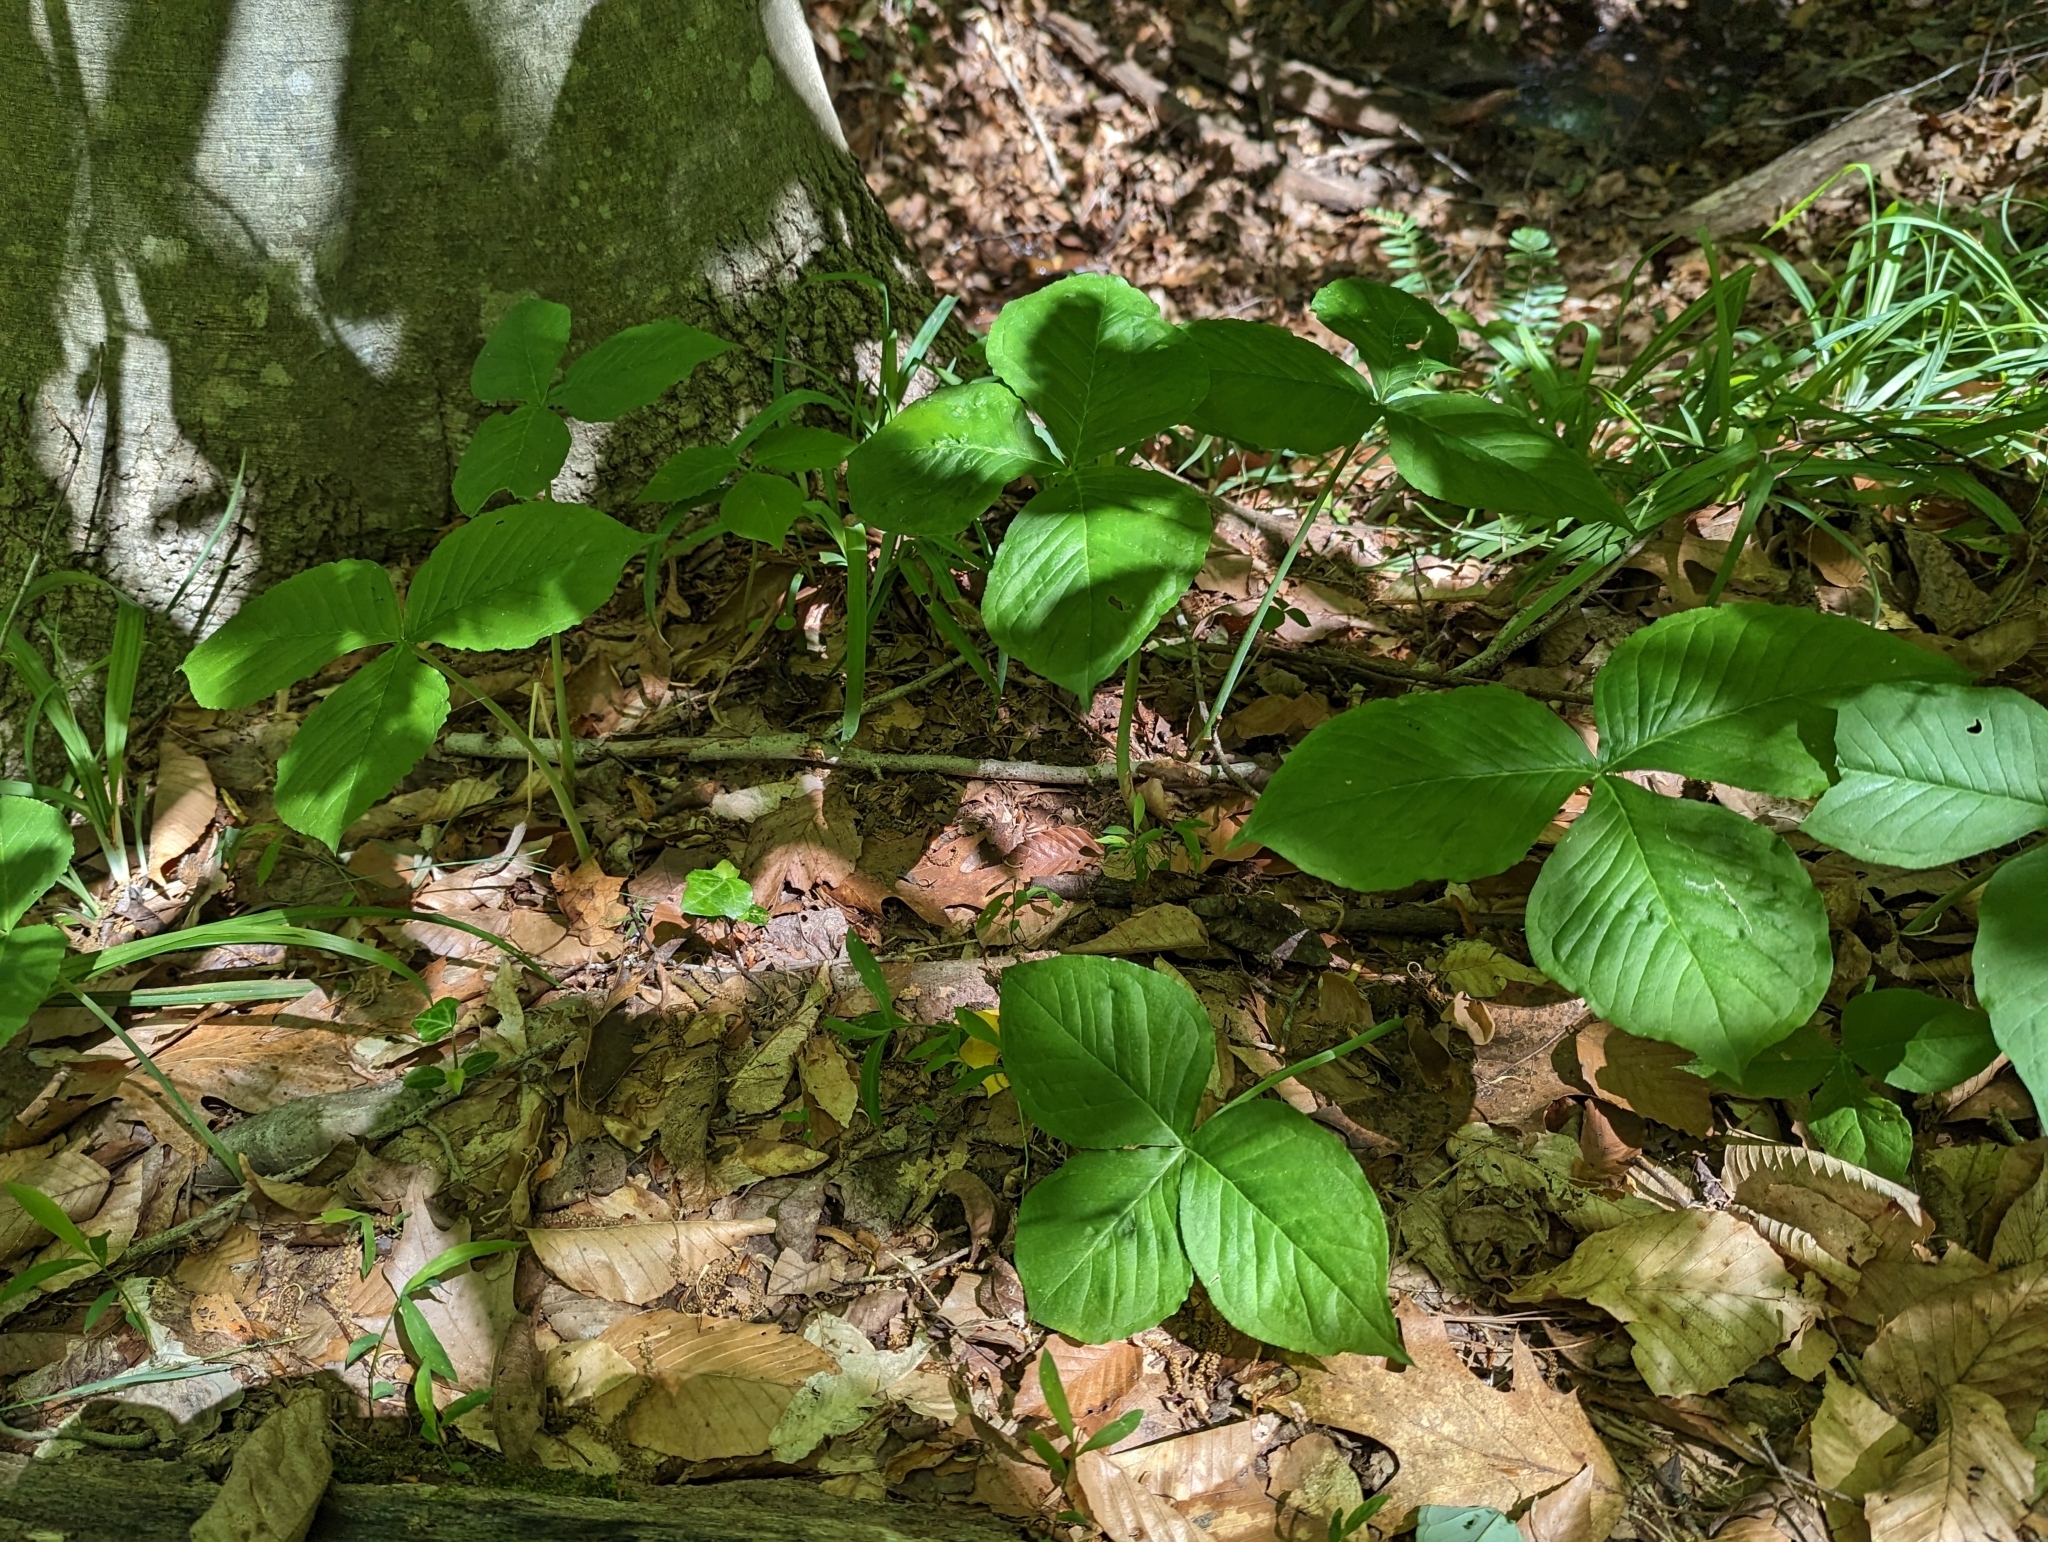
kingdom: Plantae
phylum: Tracheophyta
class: Liliopsida
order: Alismatales
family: Araceae
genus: Arisaema
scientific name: Arisaema triphyllum
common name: Jack-in-the-pulpit
